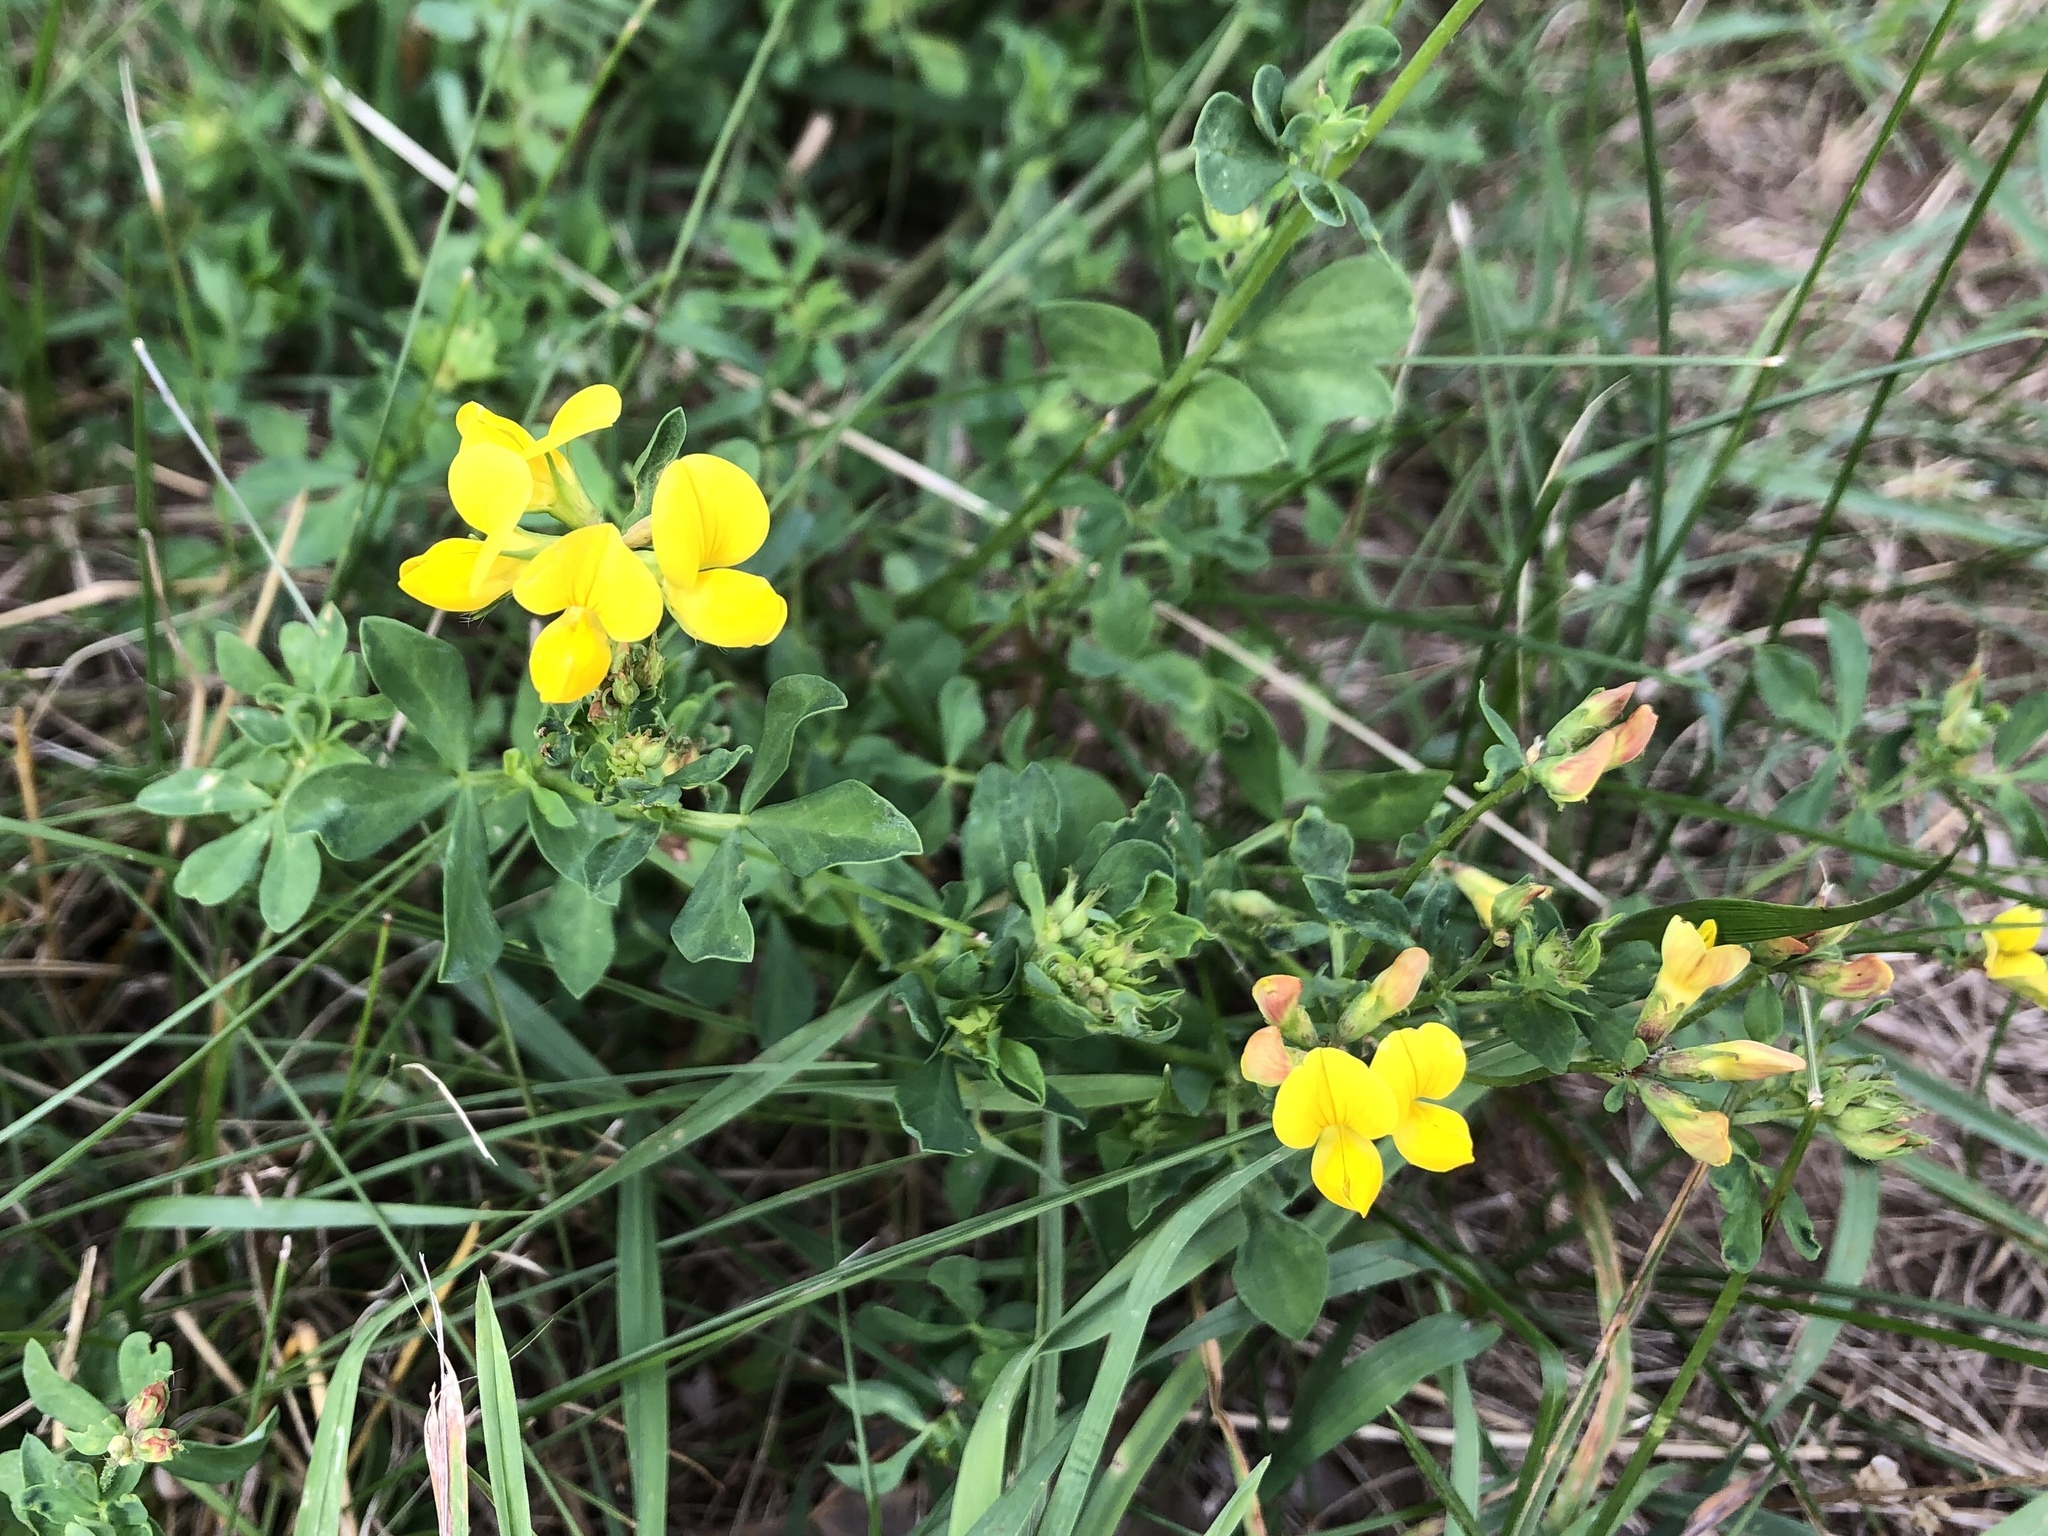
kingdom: Plantae
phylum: Tracheophyta
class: Magnoliopsida
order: Fabales
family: Fabaceae
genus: Lotus
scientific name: Lotus corniculatus
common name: Common bird's-foot-trefoil
